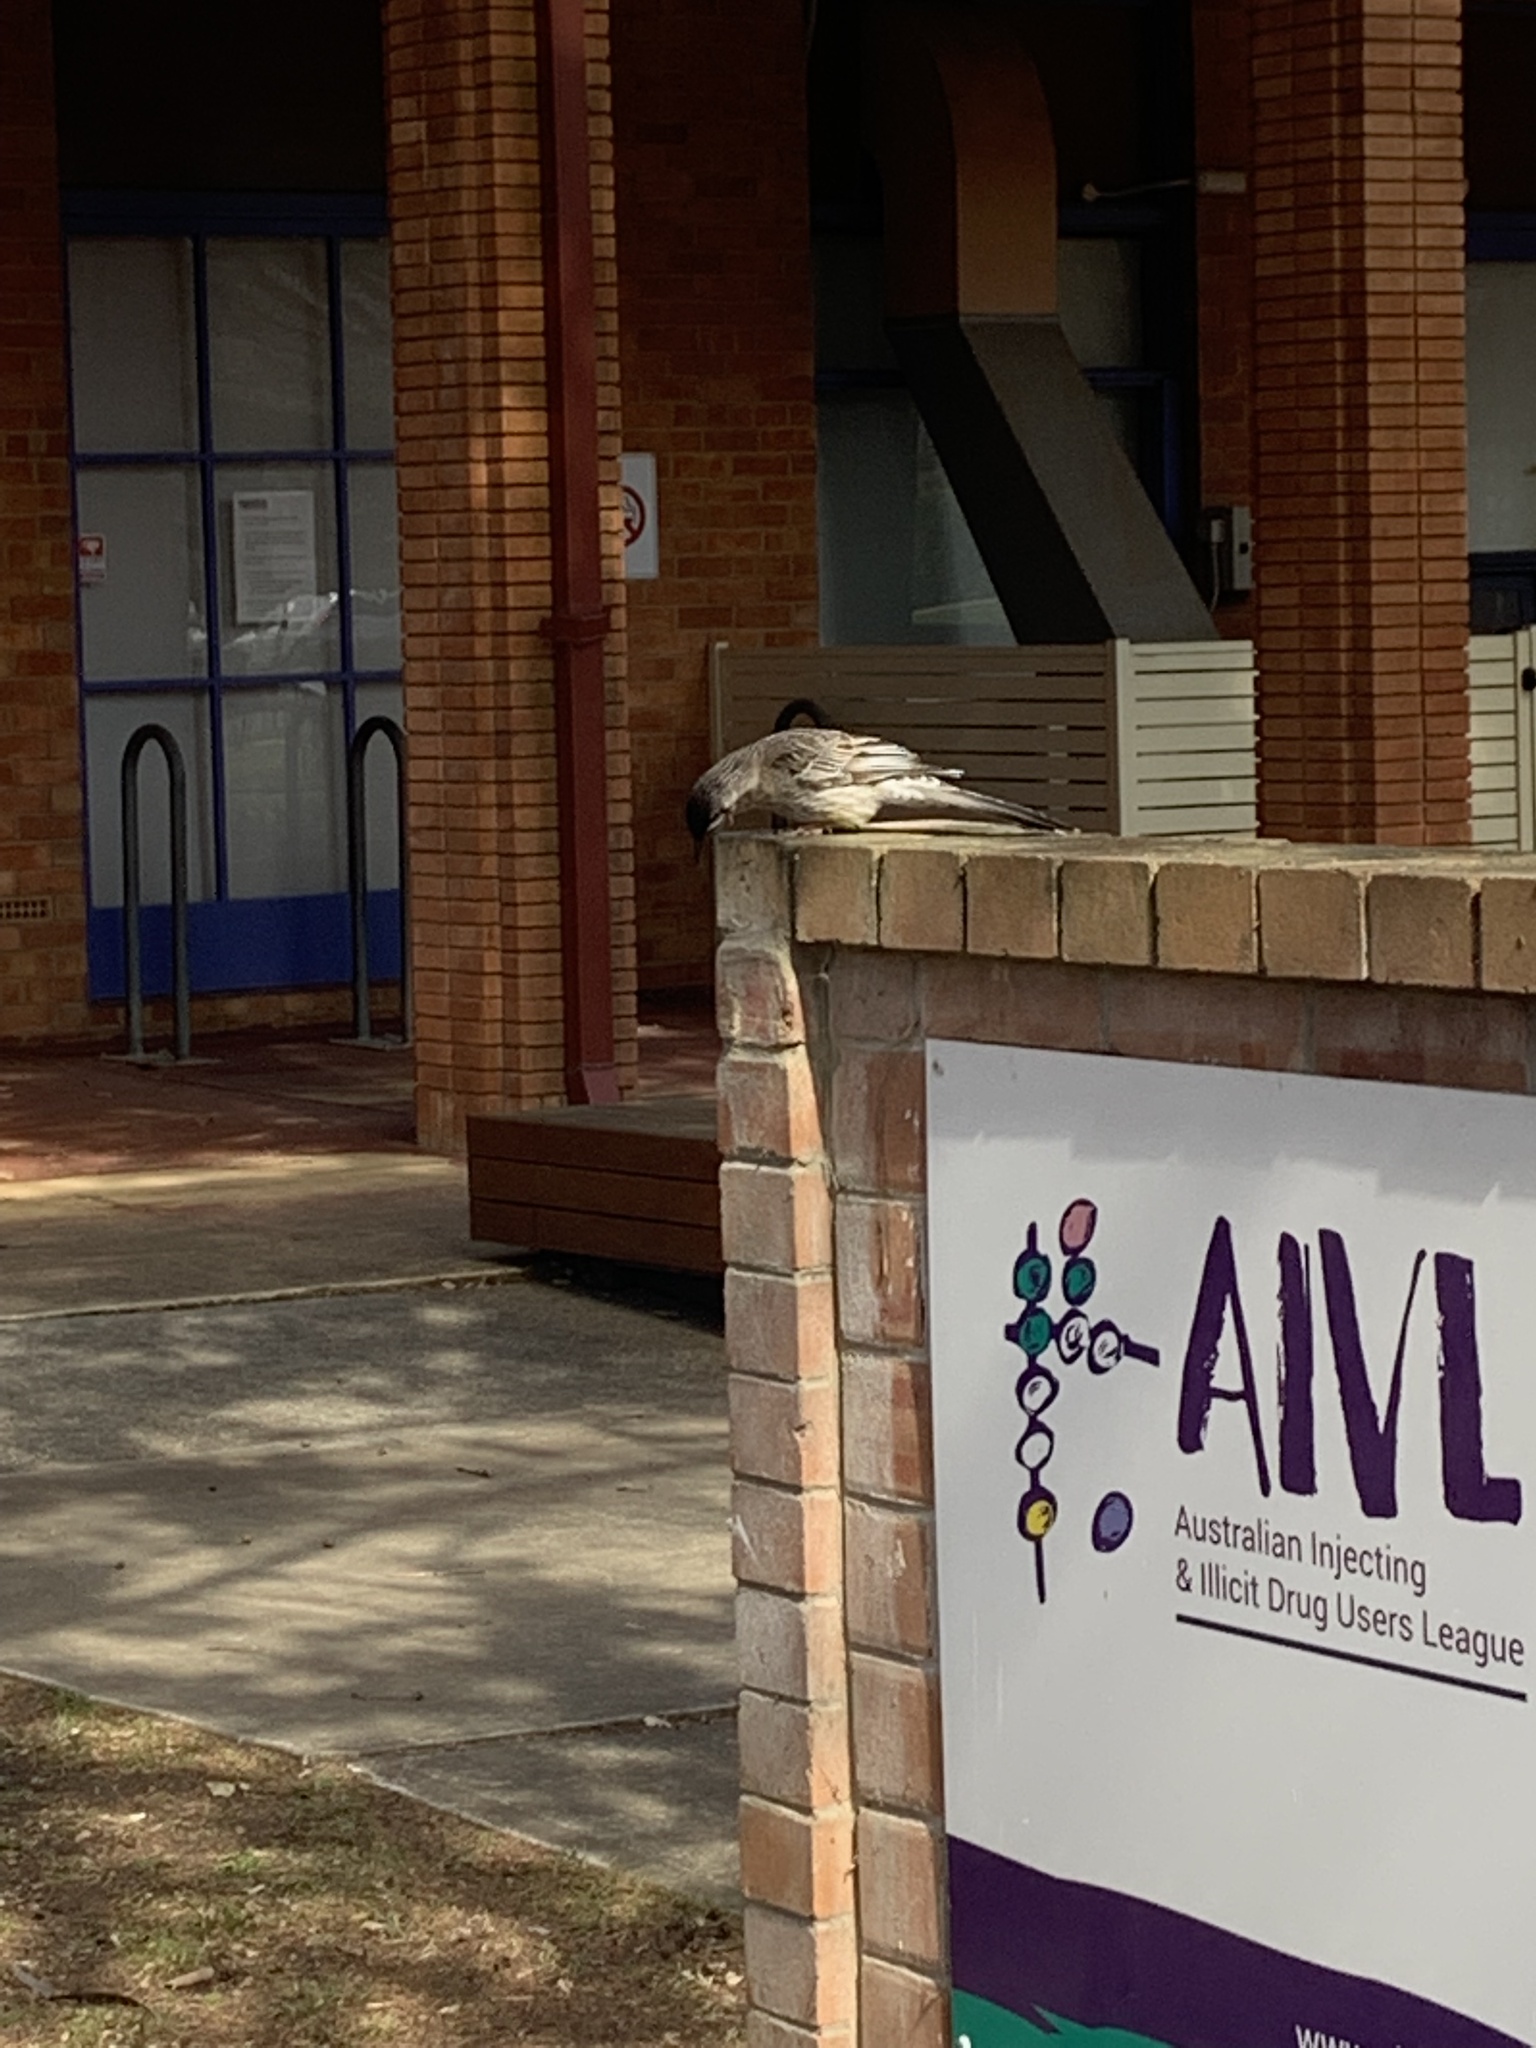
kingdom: Animalia
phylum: Chordata
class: Aves
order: Passeriformes
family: Meliphagidae
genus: Anthochaera
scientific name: Anthochaera carunculata
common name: Red wattlebird
